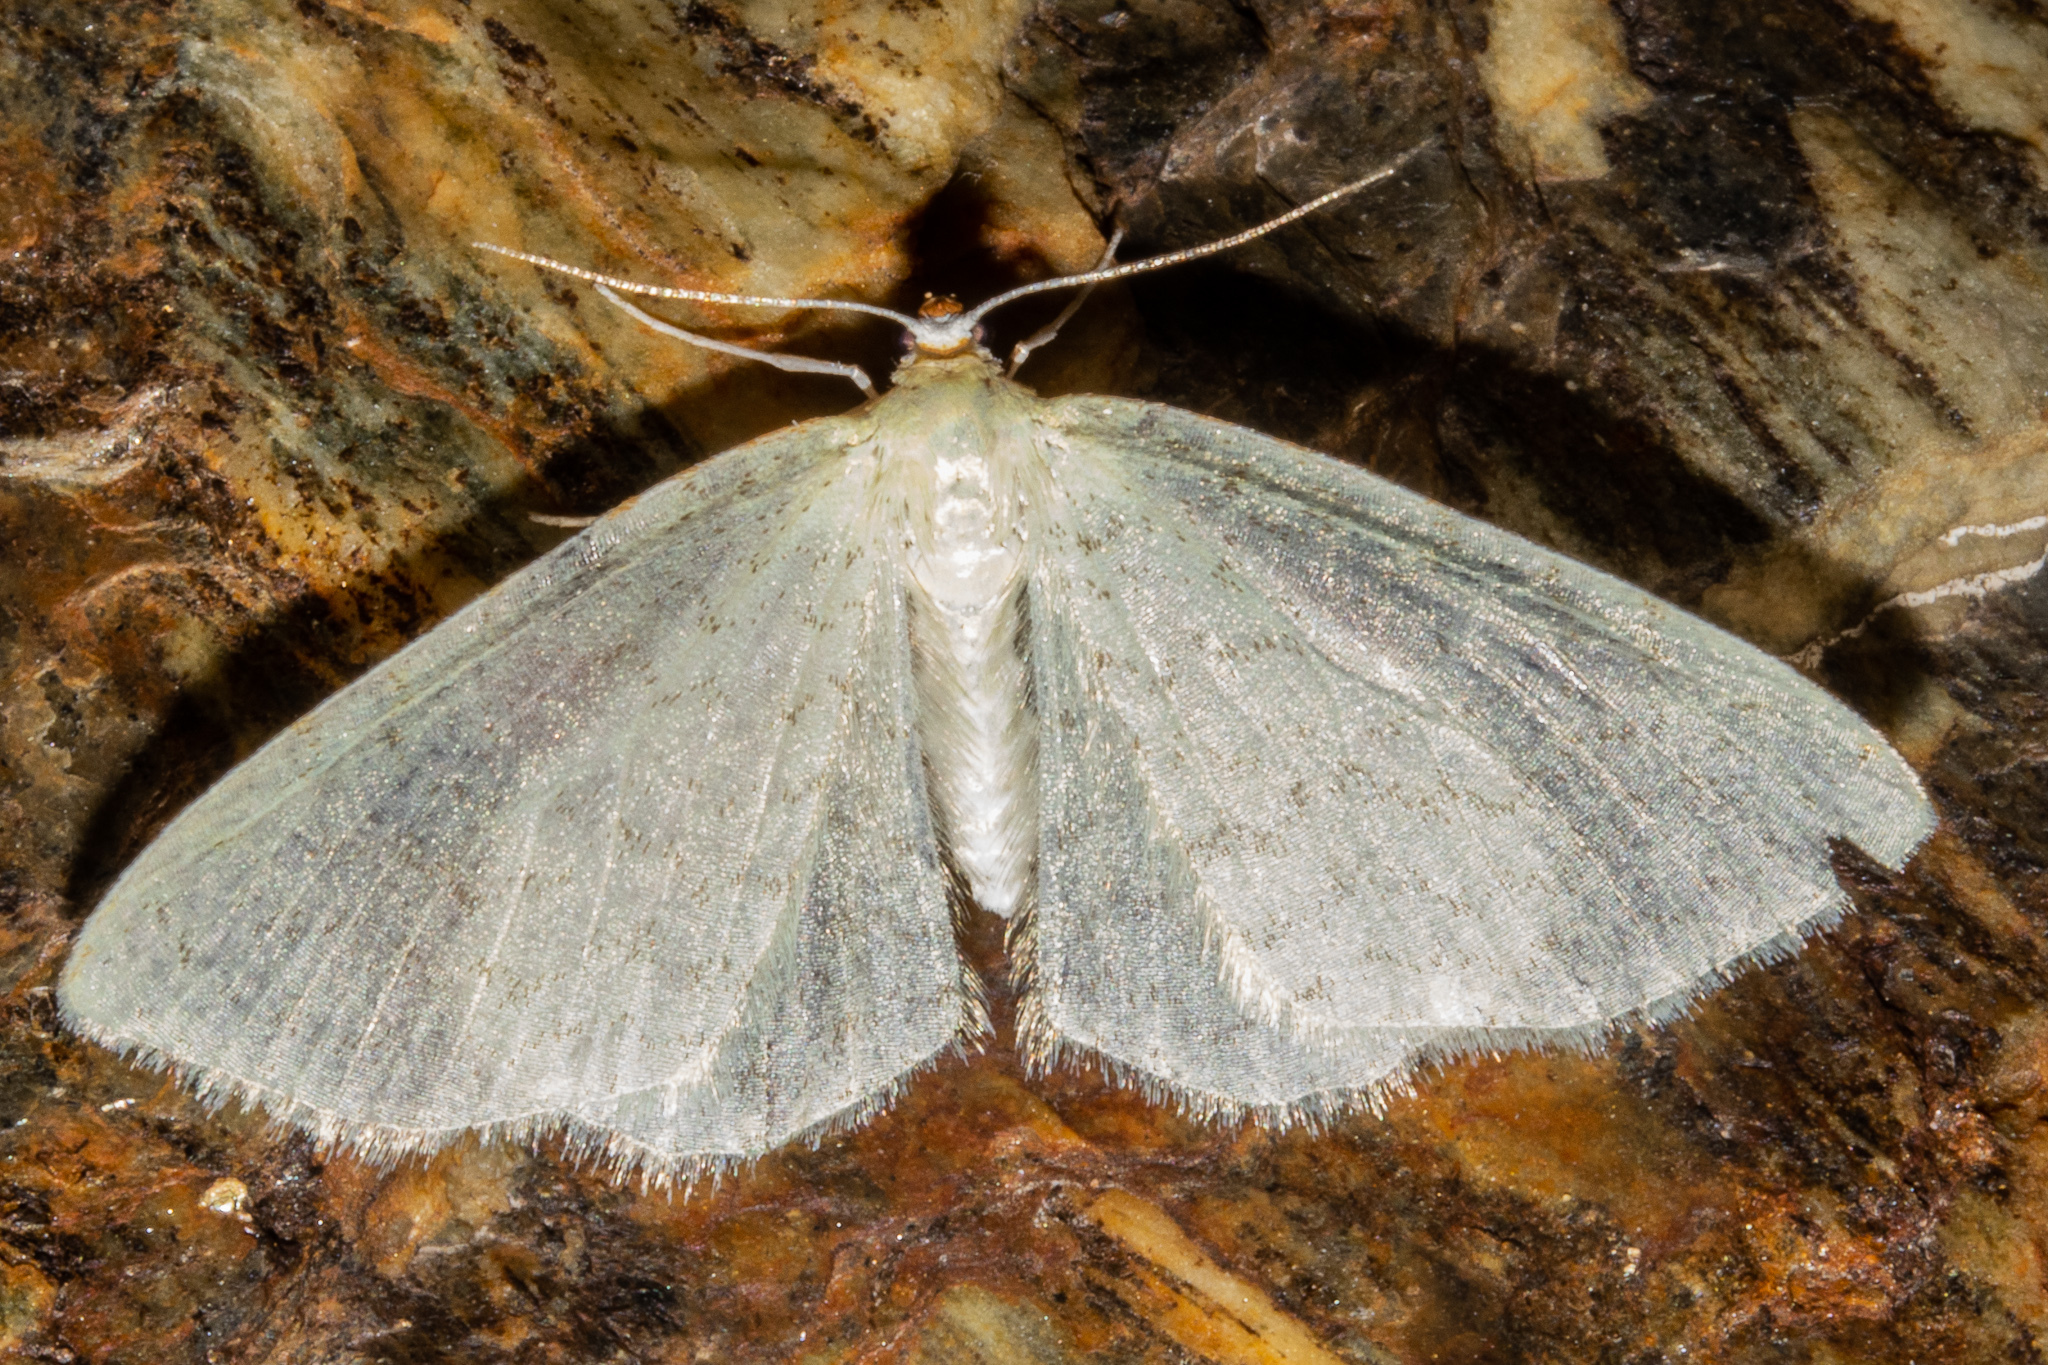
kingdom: Animalia
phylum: Arthropoda
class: Insecta
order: Lepidoptera
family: Geometridae
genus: Epiphryne
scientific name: Epiphryne undosata
